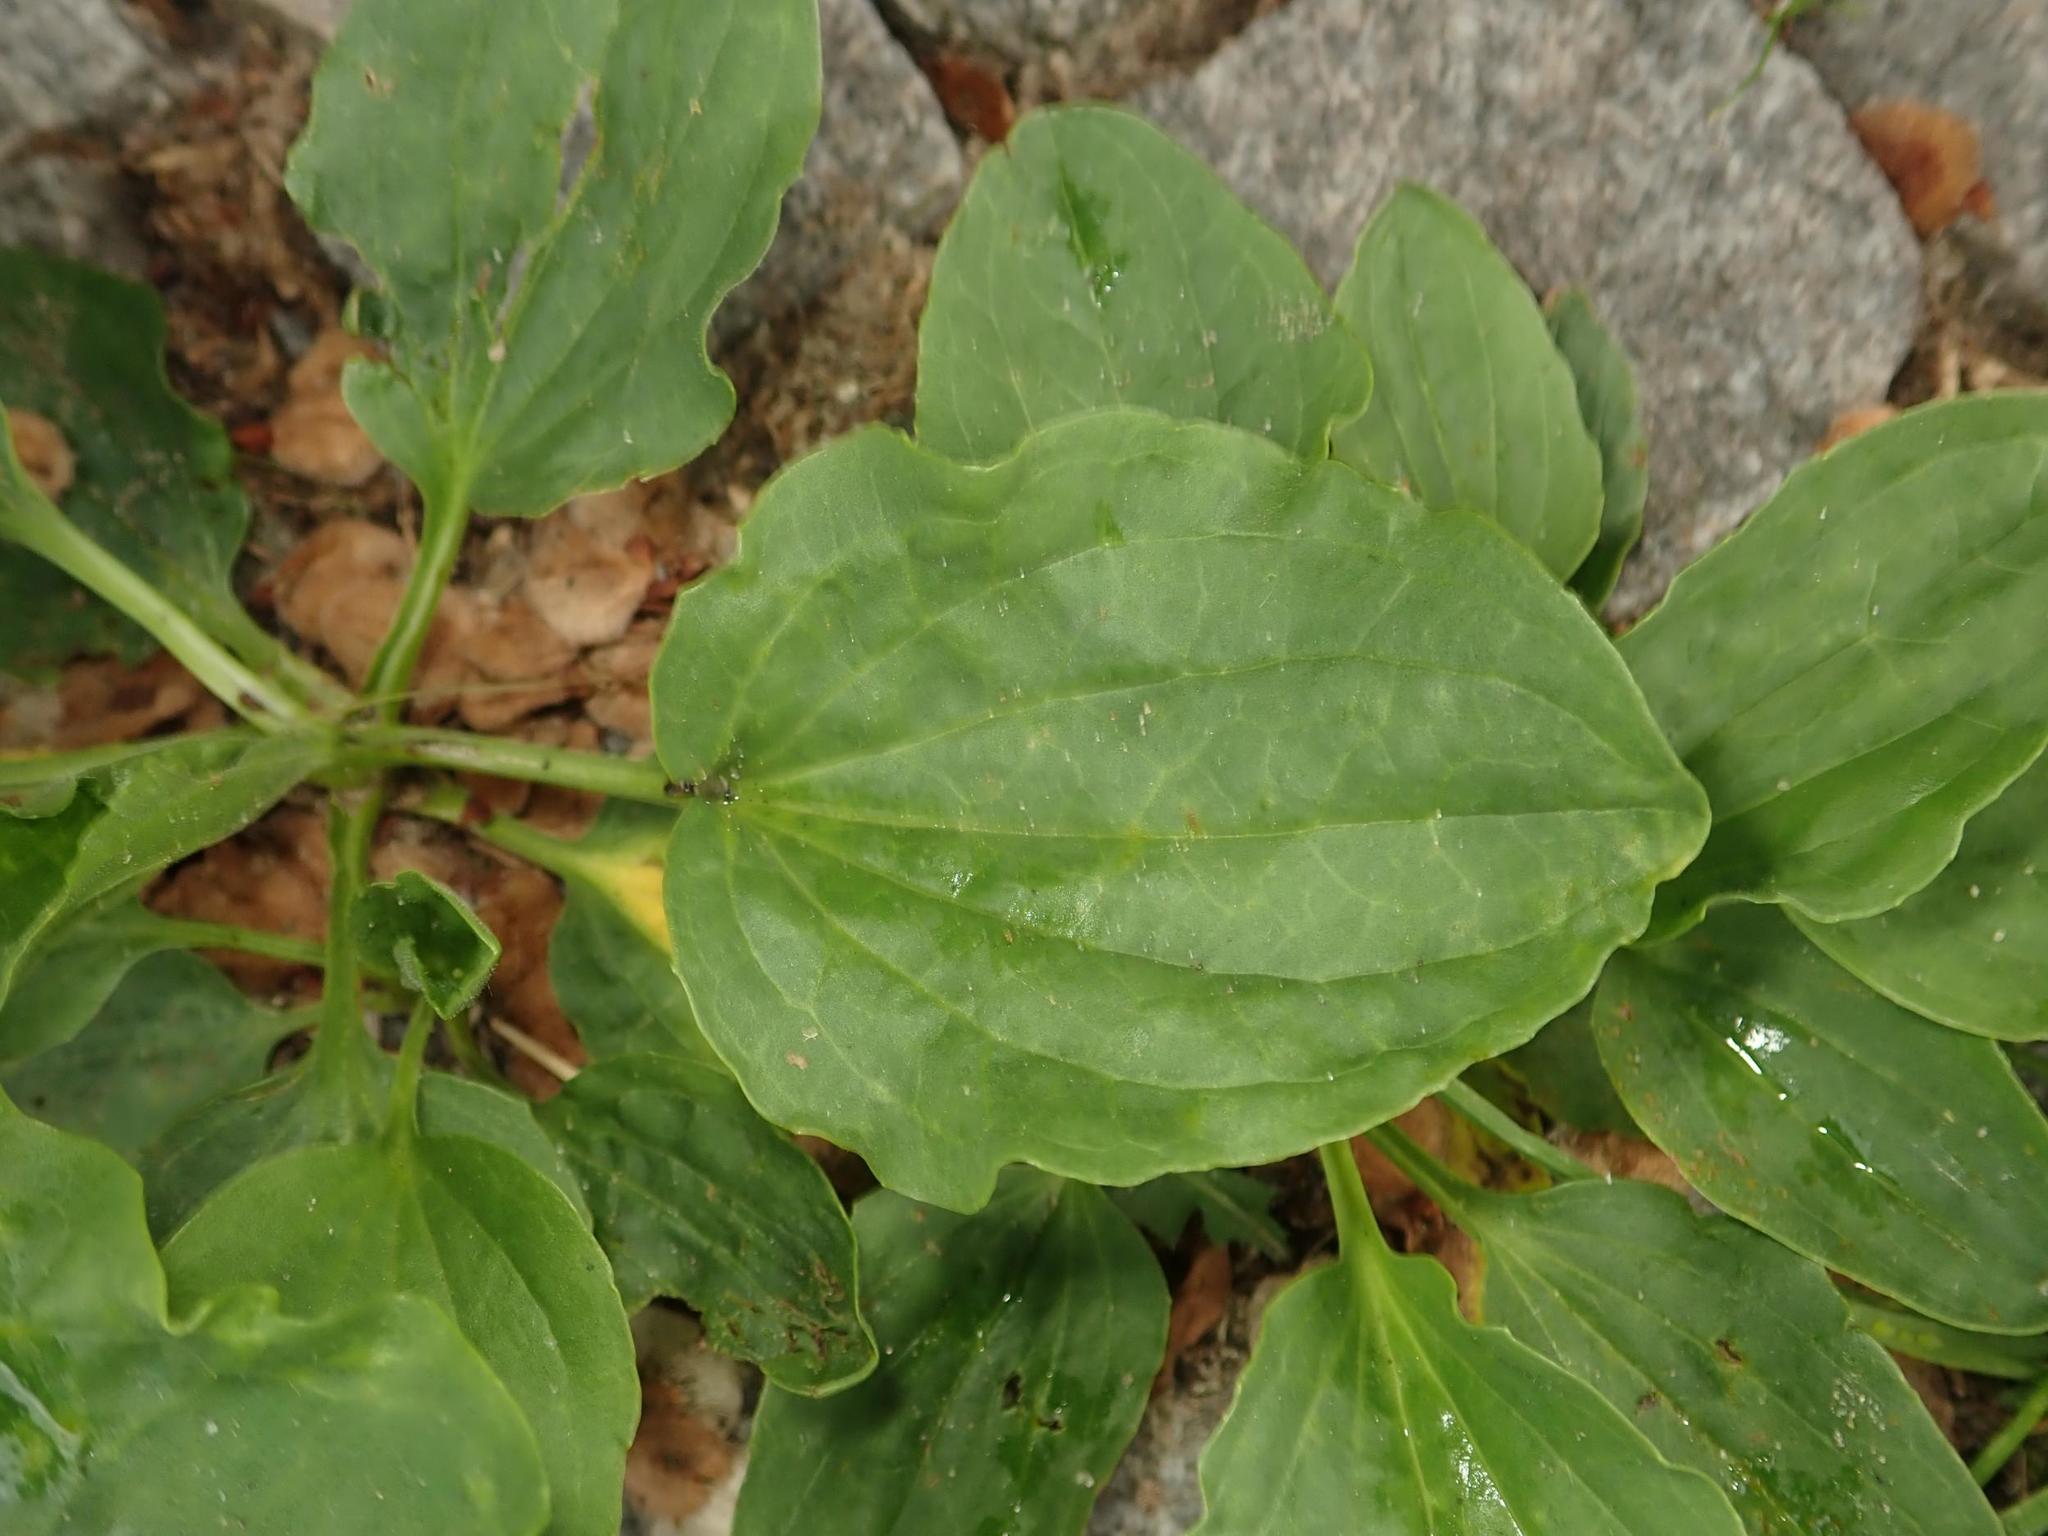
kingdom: Plantae
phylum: Tracheophyta
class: Magnoliopsida
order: Lamiales
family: Plantaginaceae
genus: Plantago
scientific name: Plantago major
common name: Common plantain
